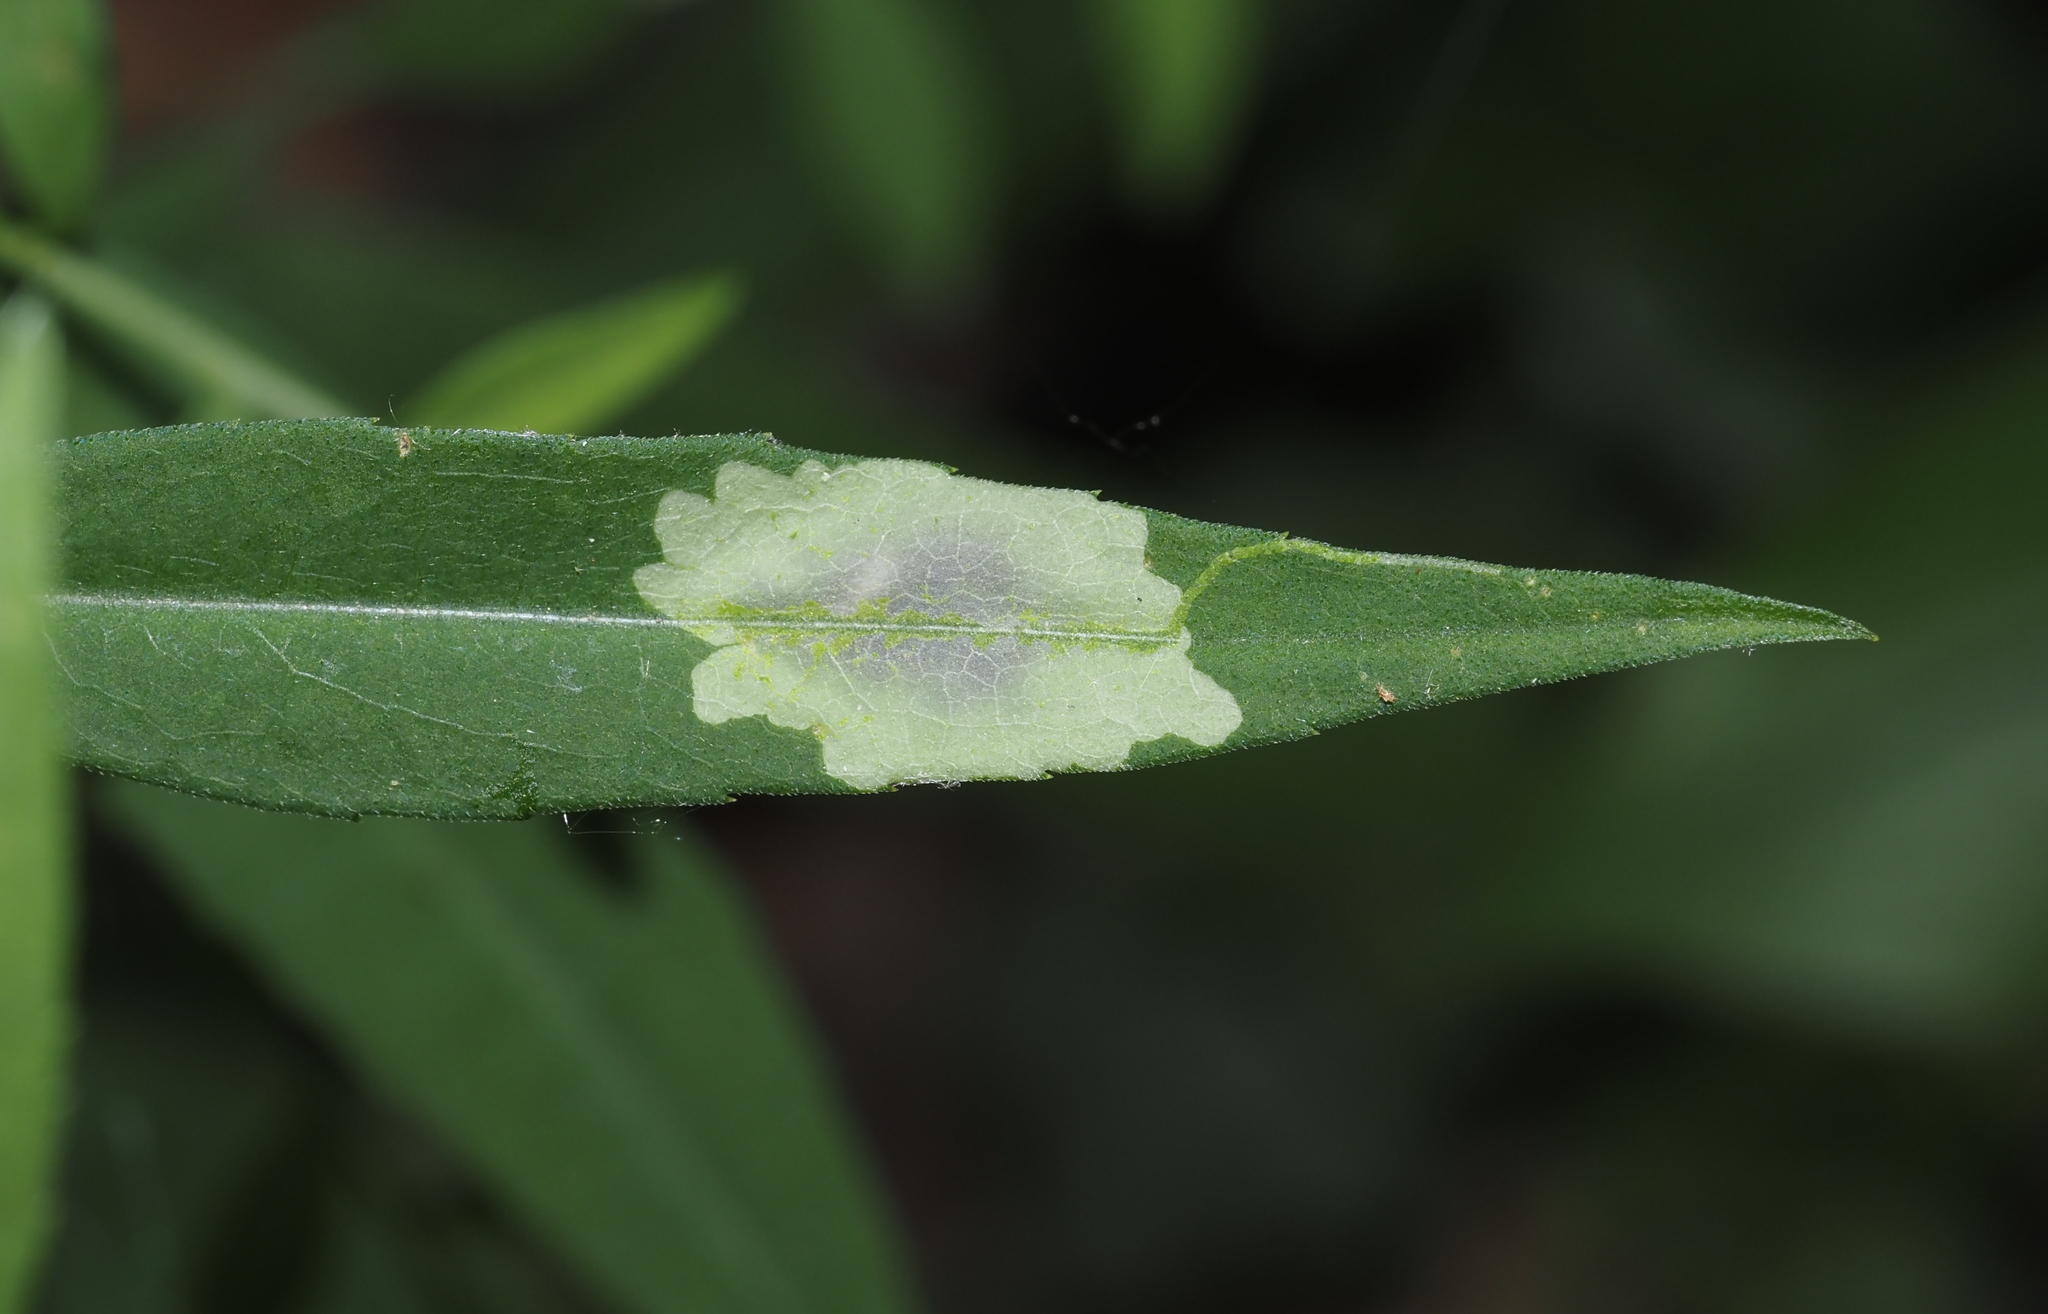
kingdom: Animalia
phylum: Arthropoda
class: Insecta
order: Diptera
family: Agromyzidae
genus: Calycomyza
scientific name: Calycomyza promissa
